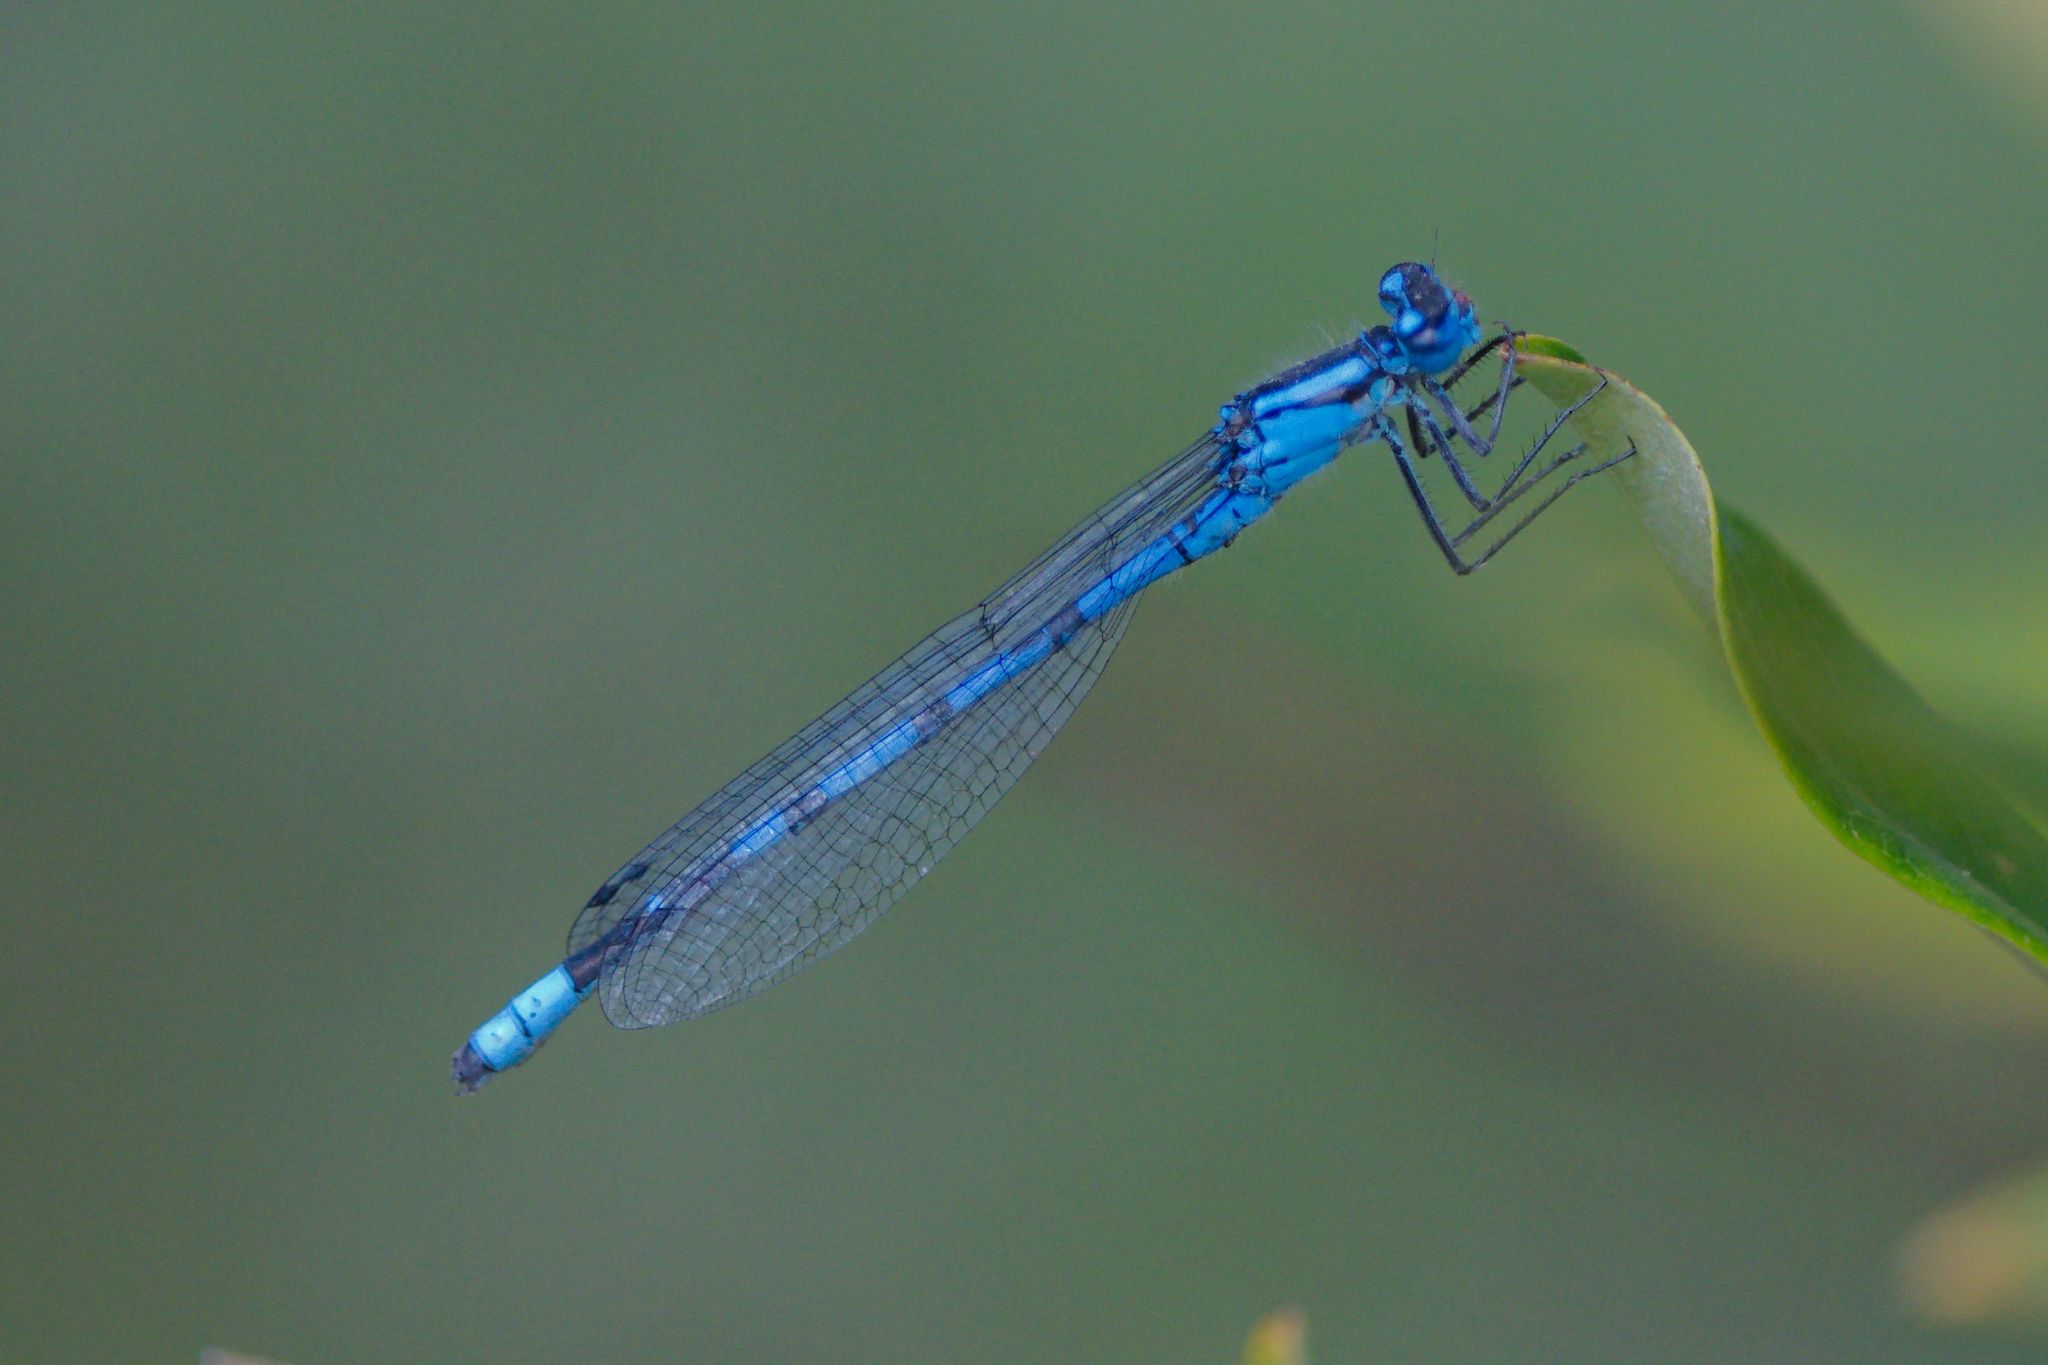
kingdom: Animalia
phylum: Arthropoda
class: Insecta
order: Odonata
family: Coenagrionidae
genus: Enallagma
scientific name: Enallagma boreale
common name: Boreal bluet
